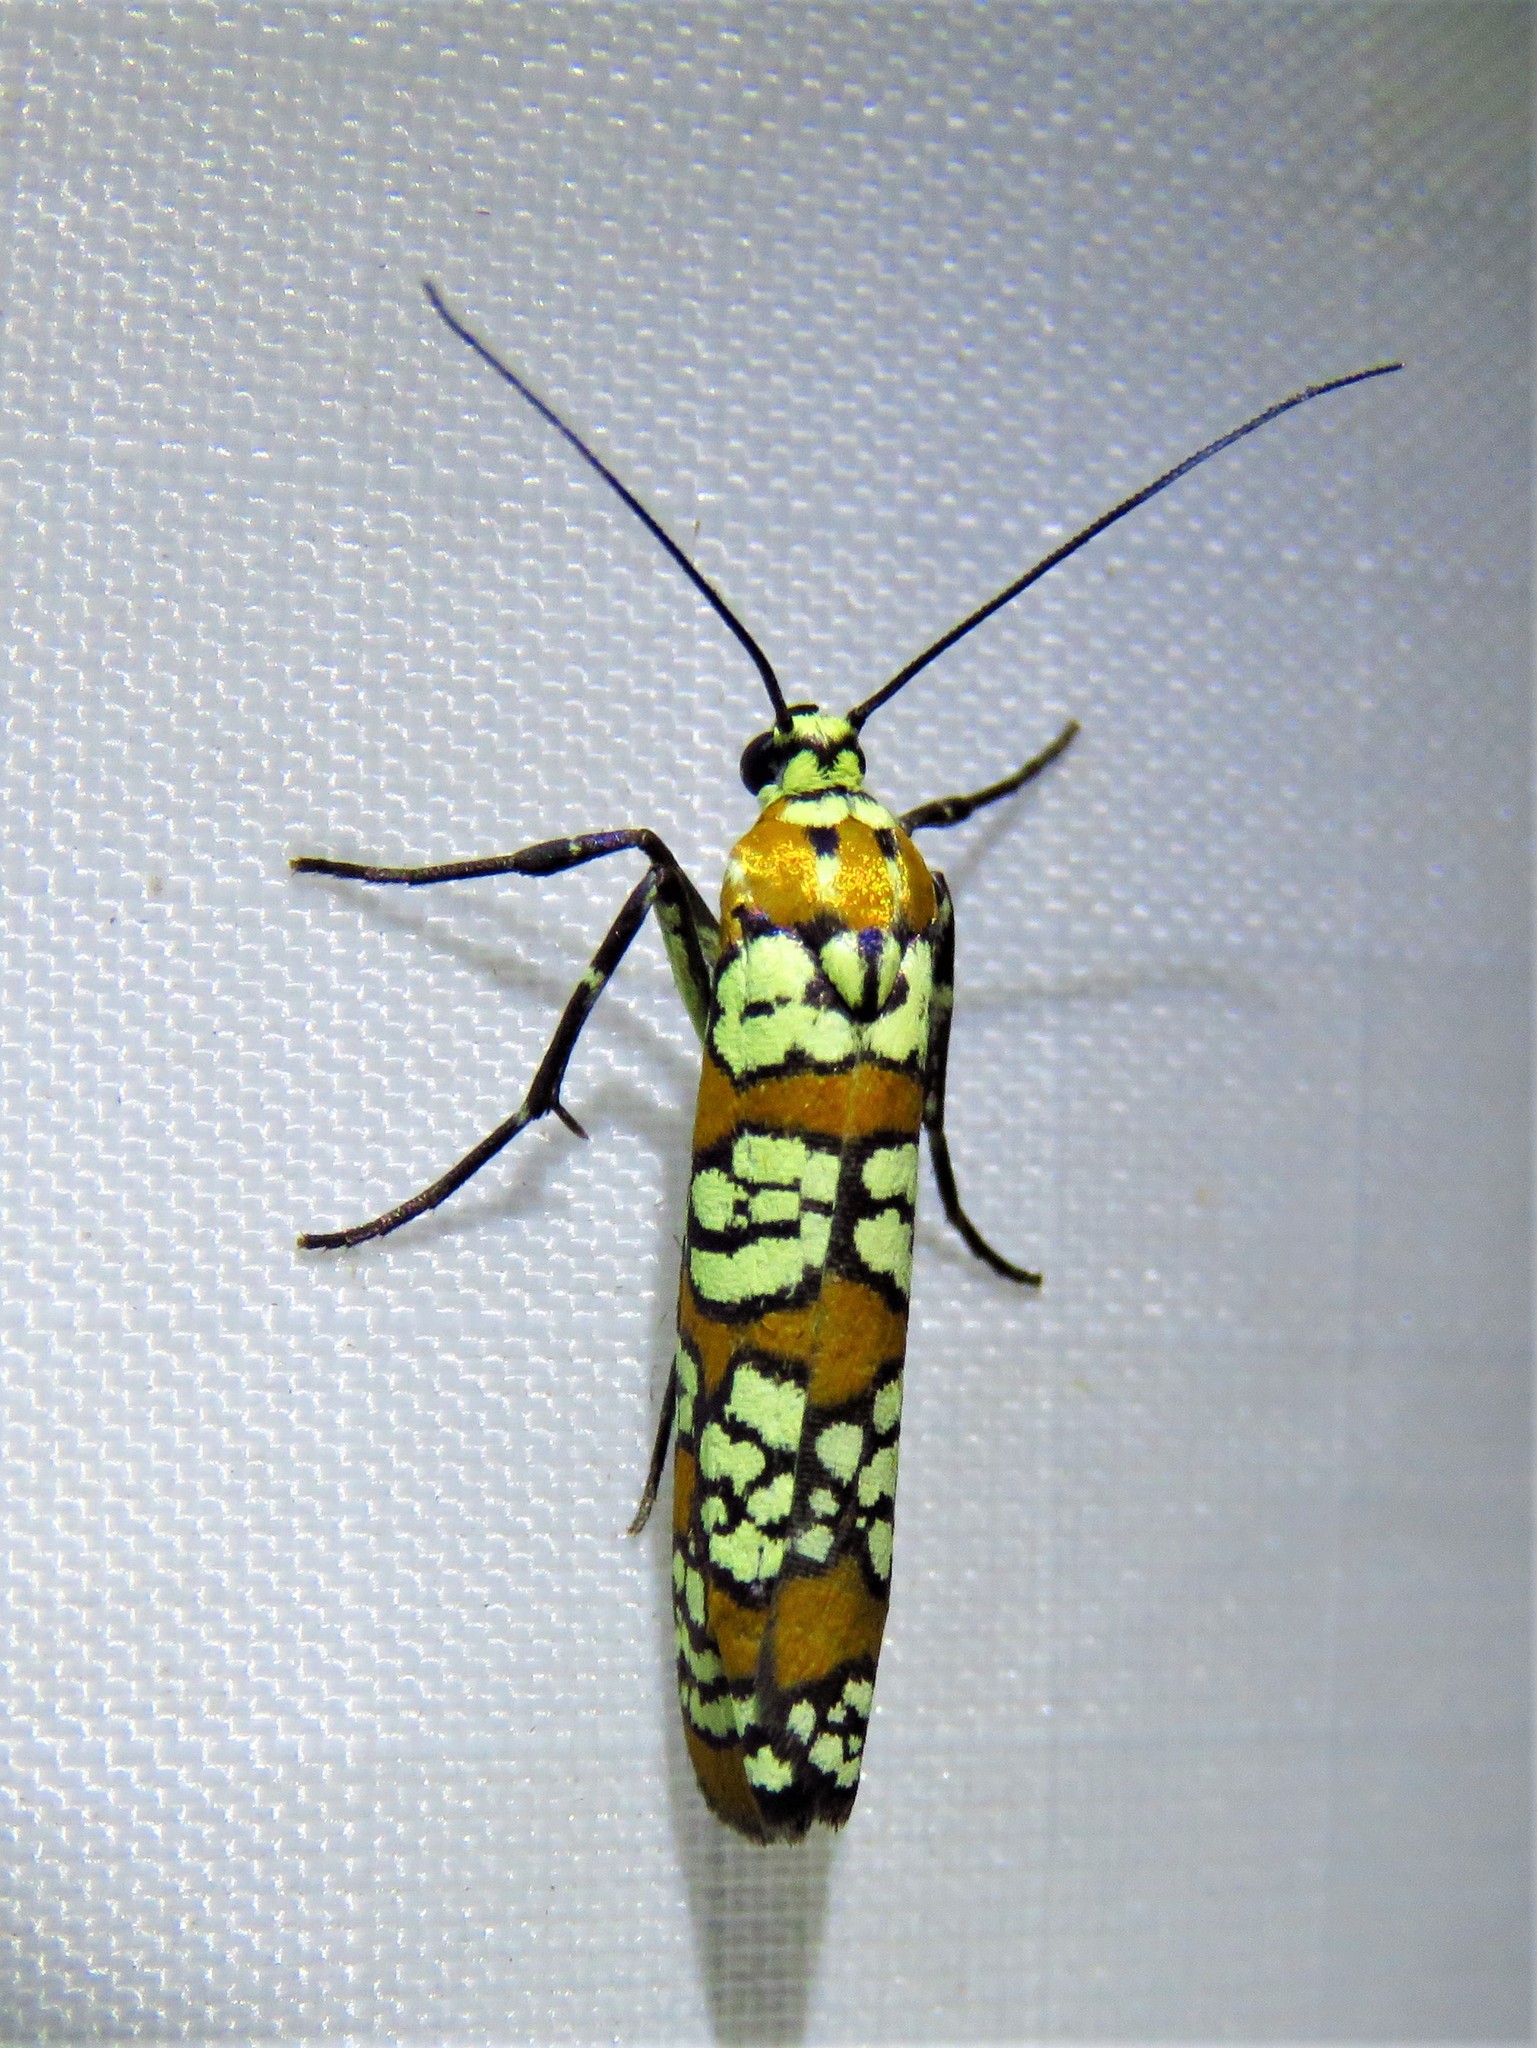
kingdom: Animalia
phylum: Arthropoda
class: Insecta
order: Lepidoptera
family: Attevidae
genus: Atteva
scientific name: Atteva punctella
